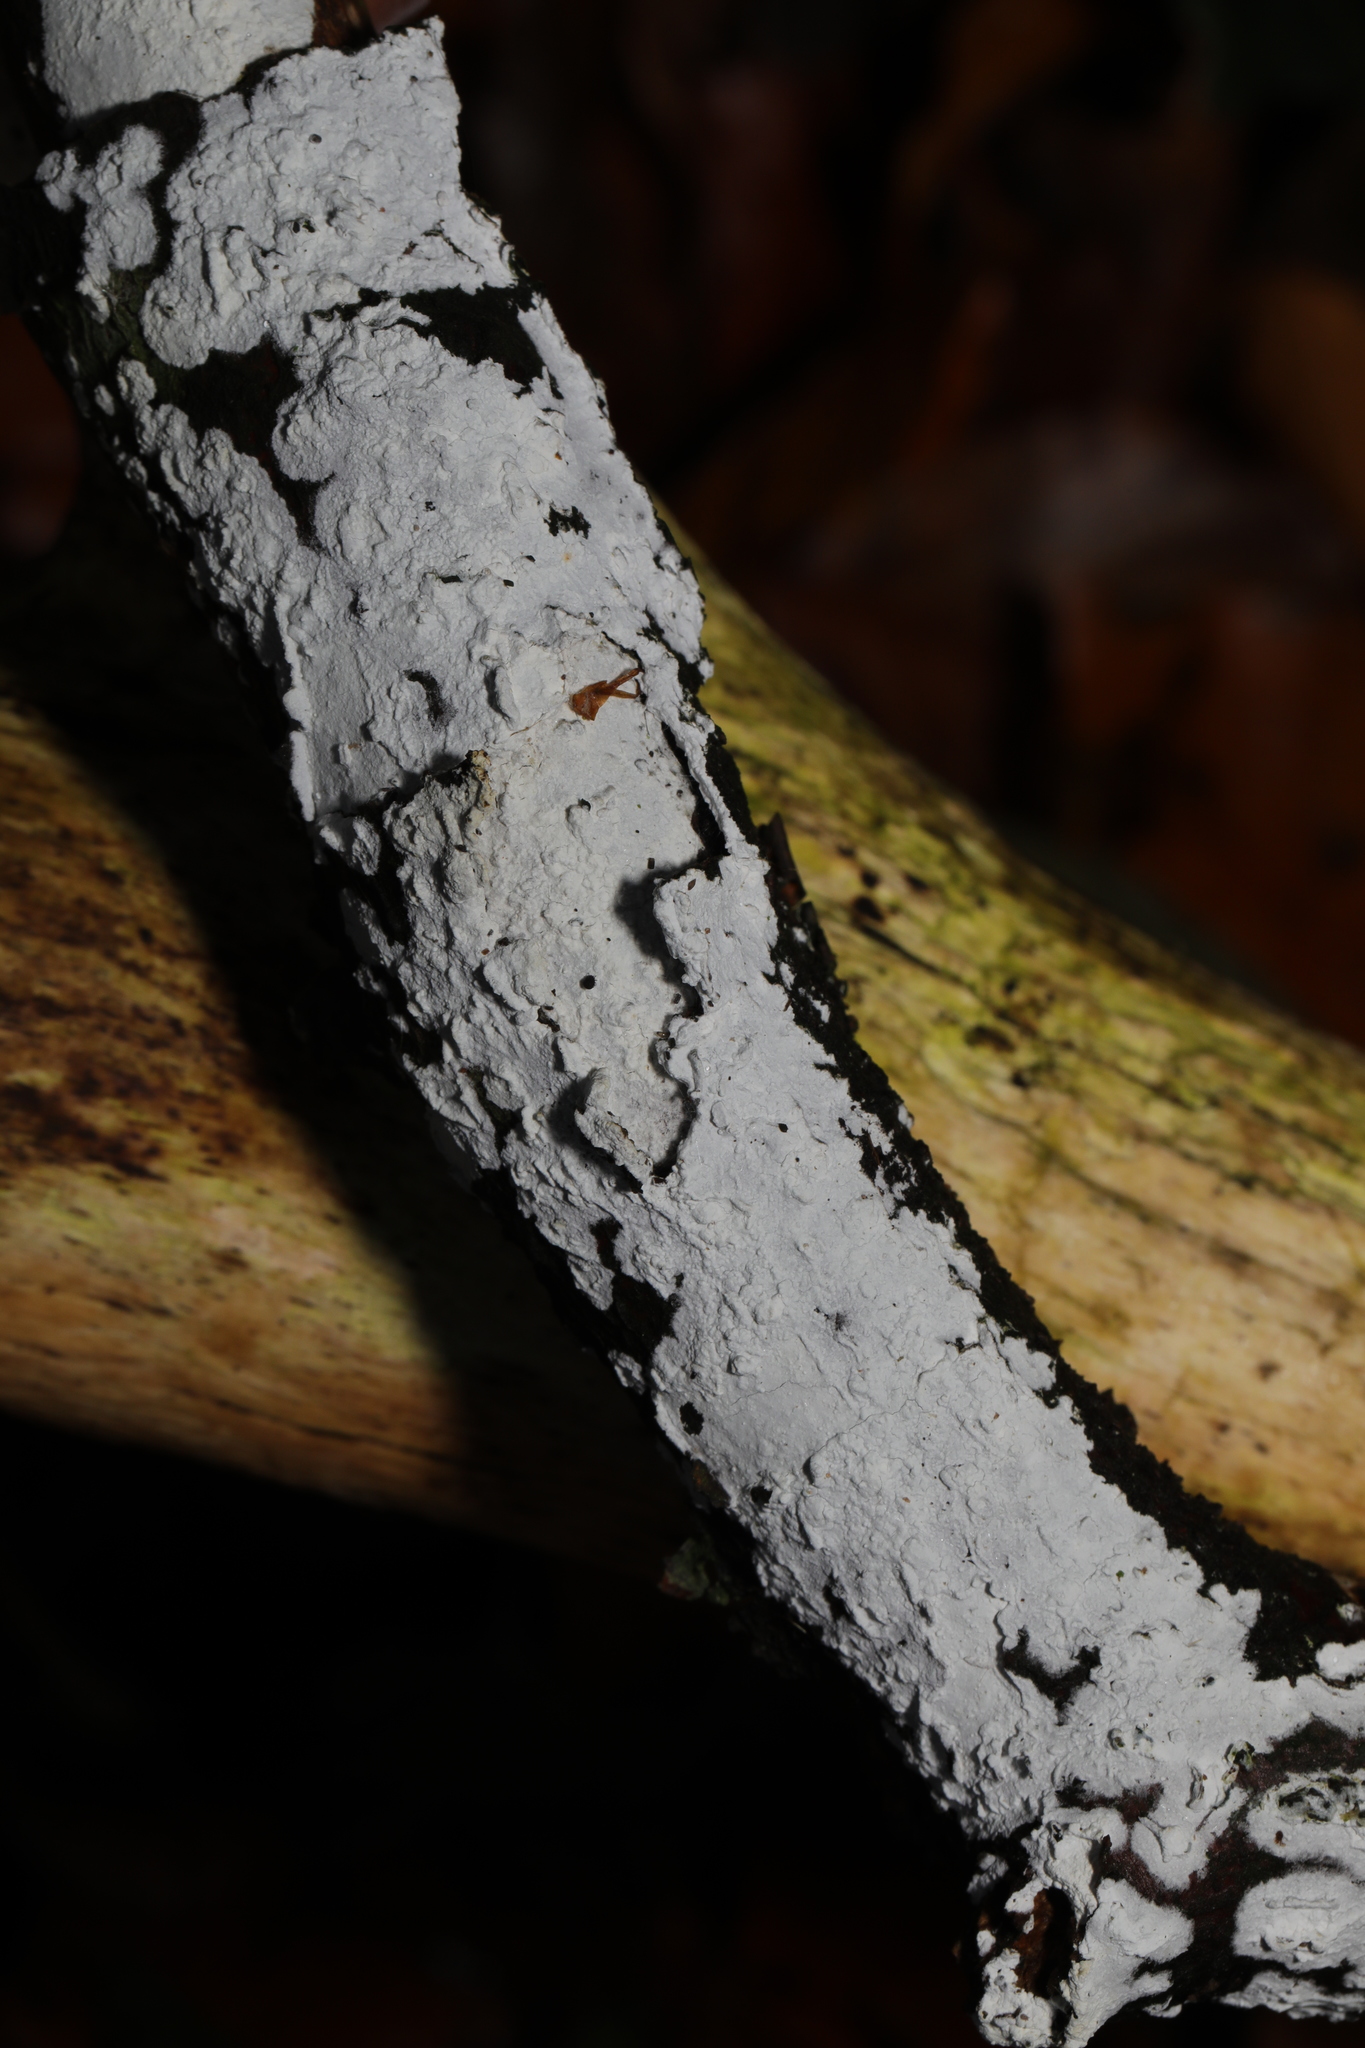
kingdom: Fungi
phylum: Basidiomycota
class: Agaricomycetes
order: Corticiales
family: Corticiaceae
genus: Lyomyces
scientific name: Lyomyces sambuci
